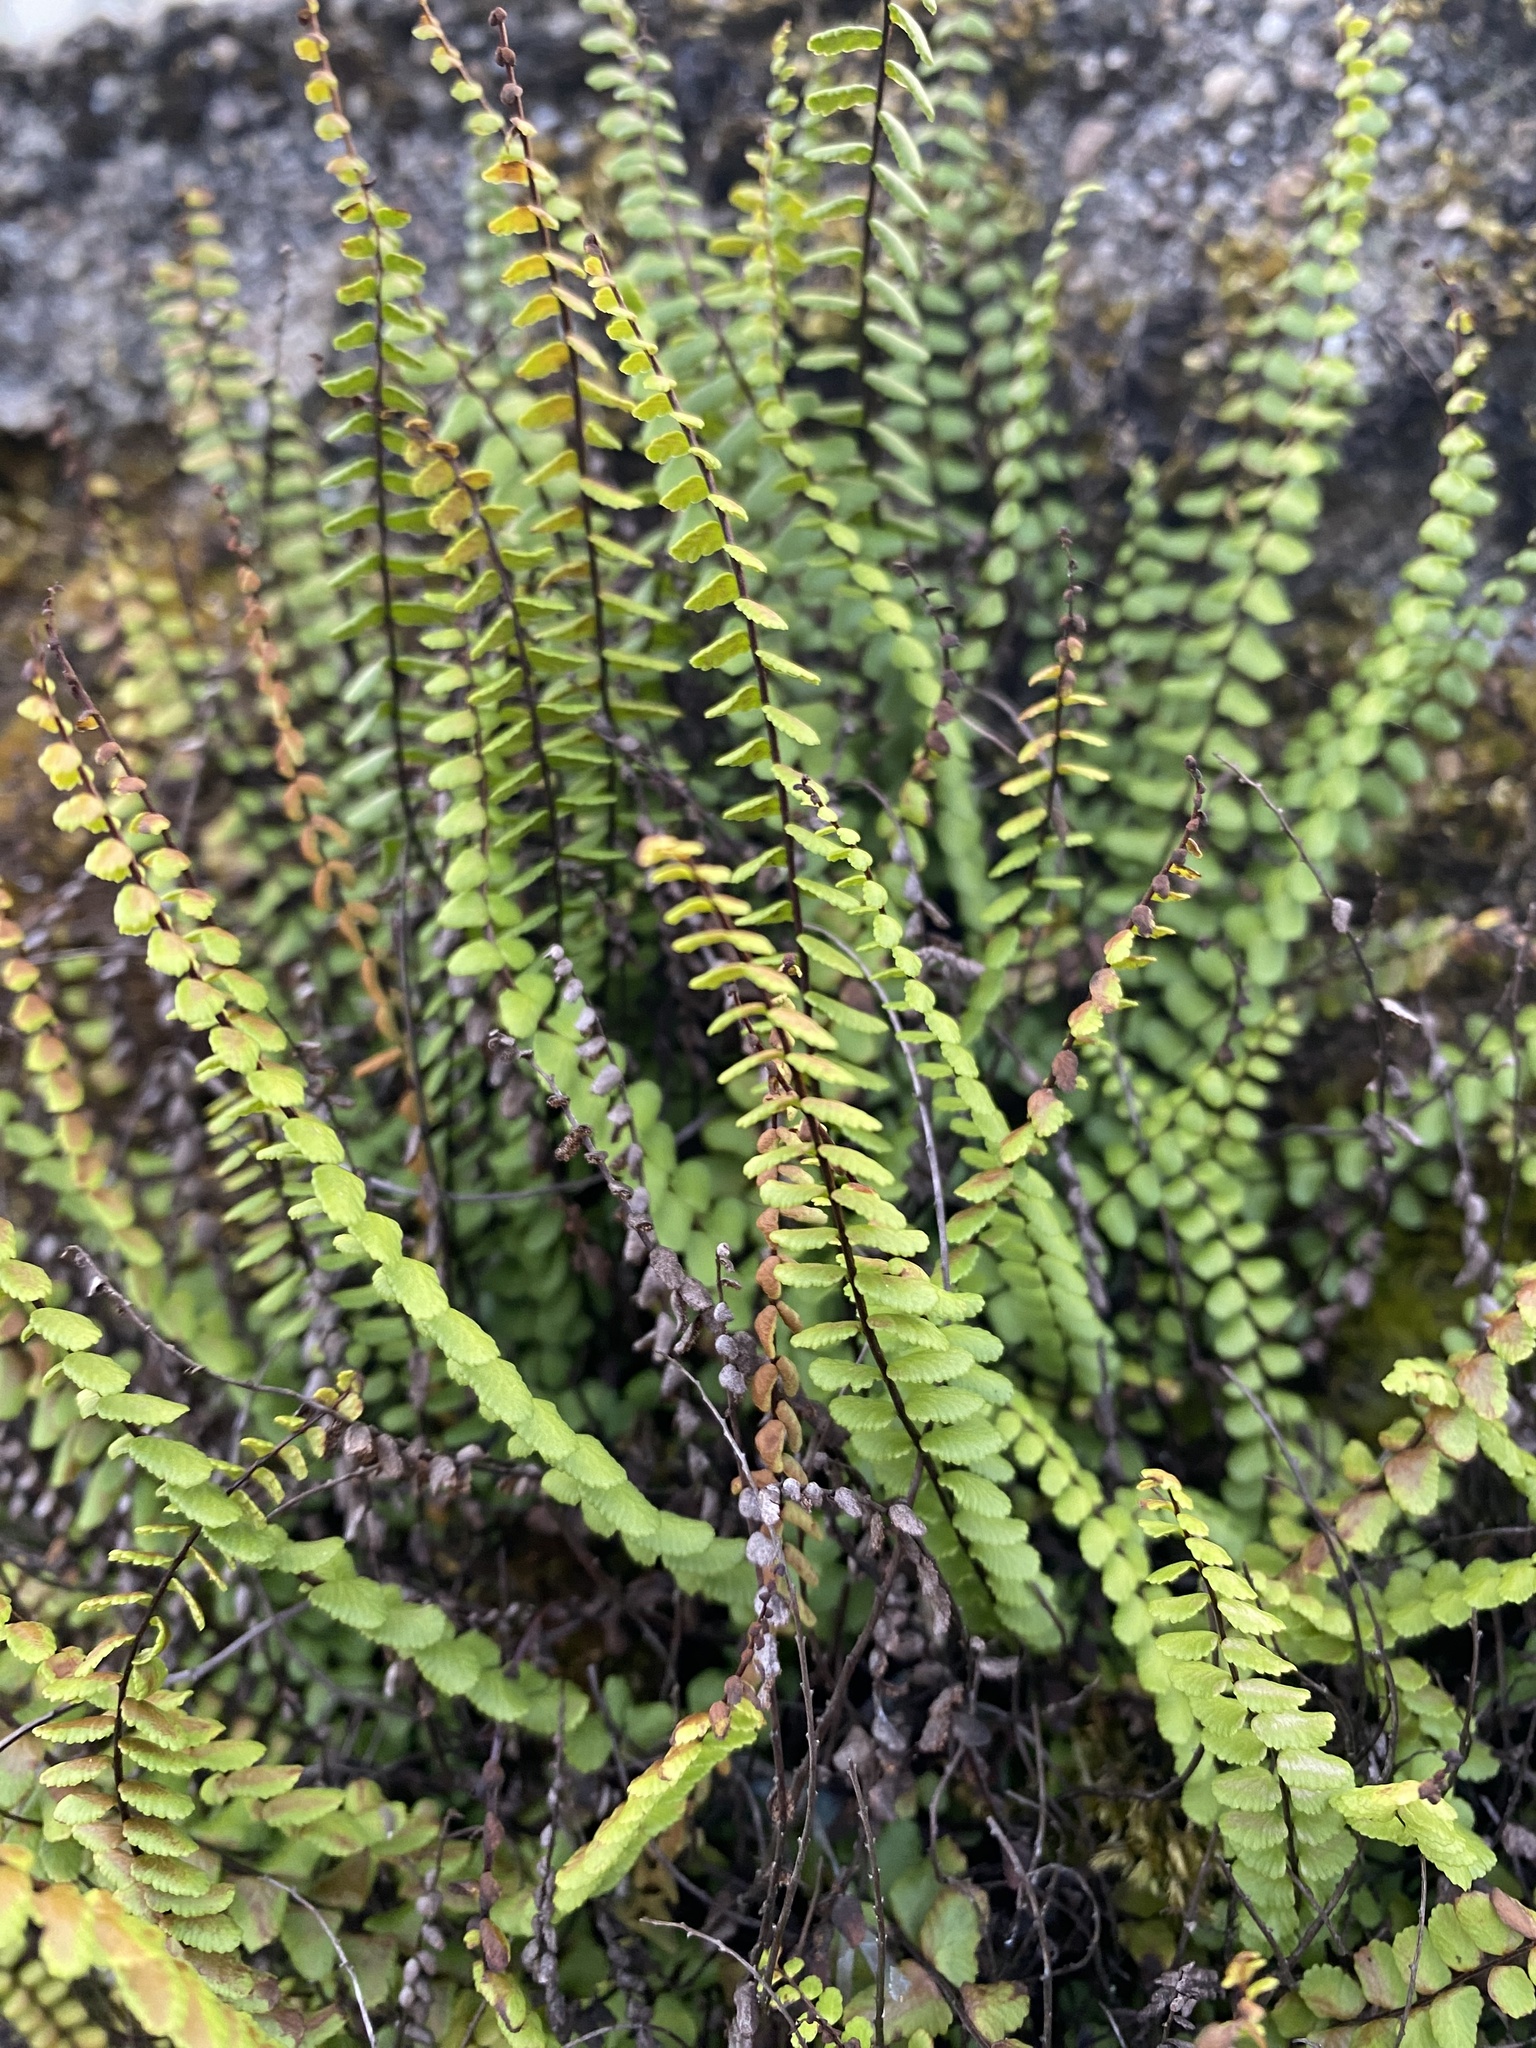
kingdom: Plantae
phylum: Tracheophyta
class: Polypodiopsida
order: Polypodiales
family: Aspleniaceae
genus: Asplenium
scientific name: Asplenium trichomanes
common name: Maidenhair spleenwort
